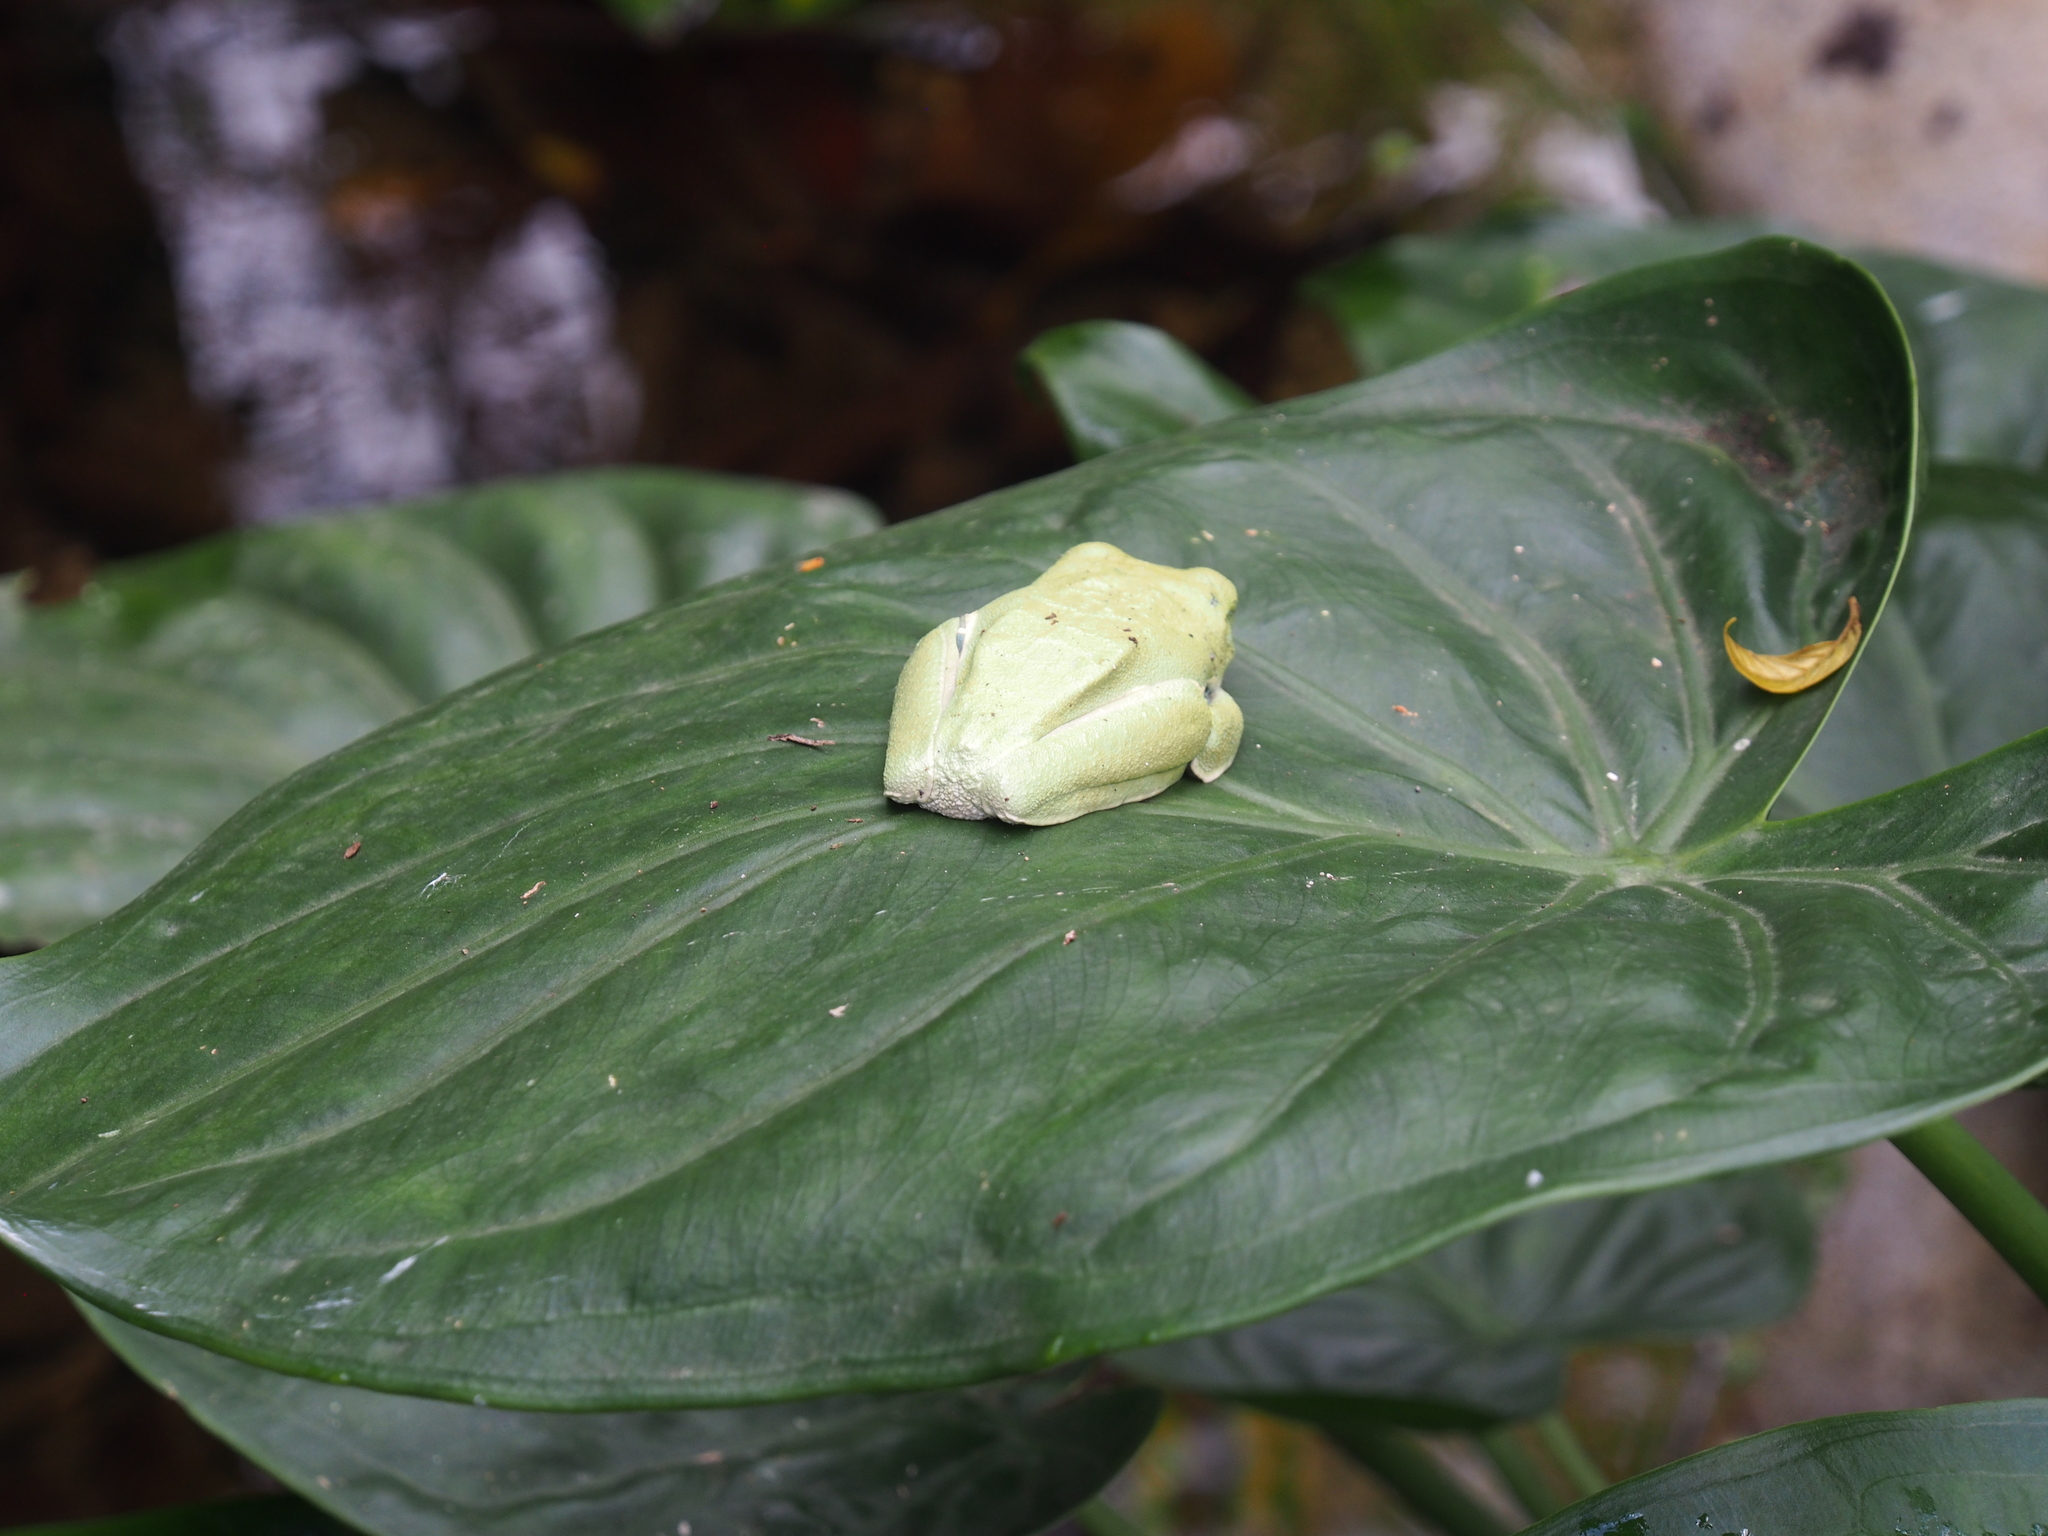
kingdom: Animalia
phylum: Chordata
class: Amphibia
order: Anura
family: Phyllomedusidae
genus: Agalychnis
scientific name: Agalychnis callidryas
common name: Red-eyed treefrog
